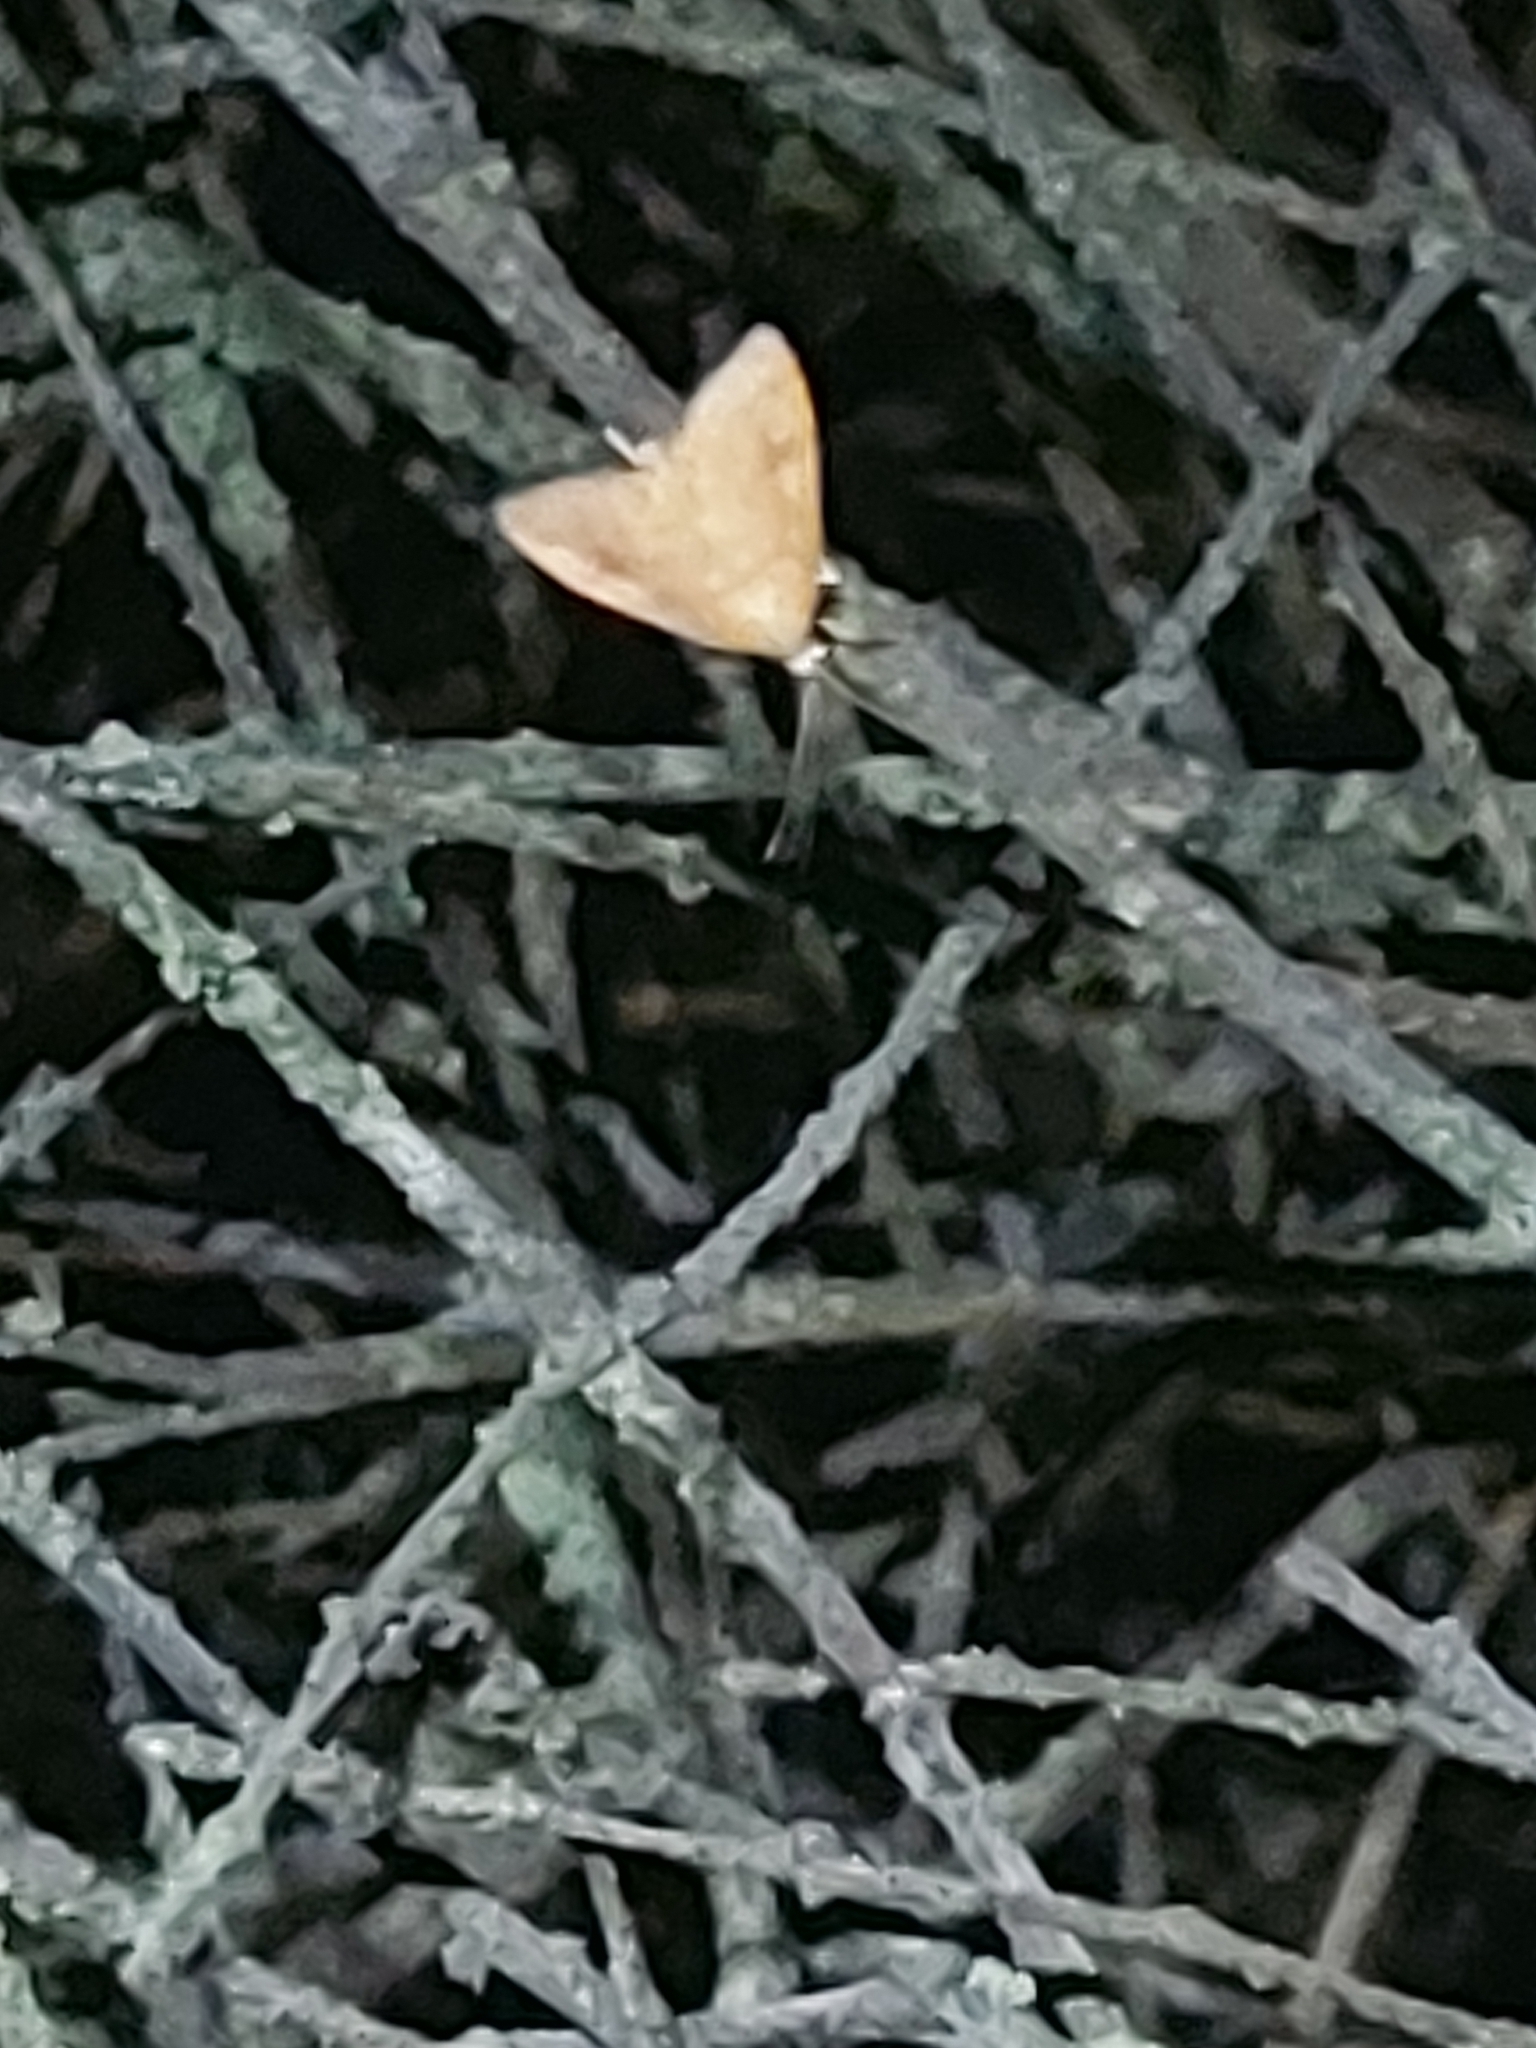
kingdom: Animalia
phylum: Arthropoda
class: Insecta
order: Lepidoptera
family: Crambidae
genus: Udea
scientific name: Udea Mnesictena flavidalis
